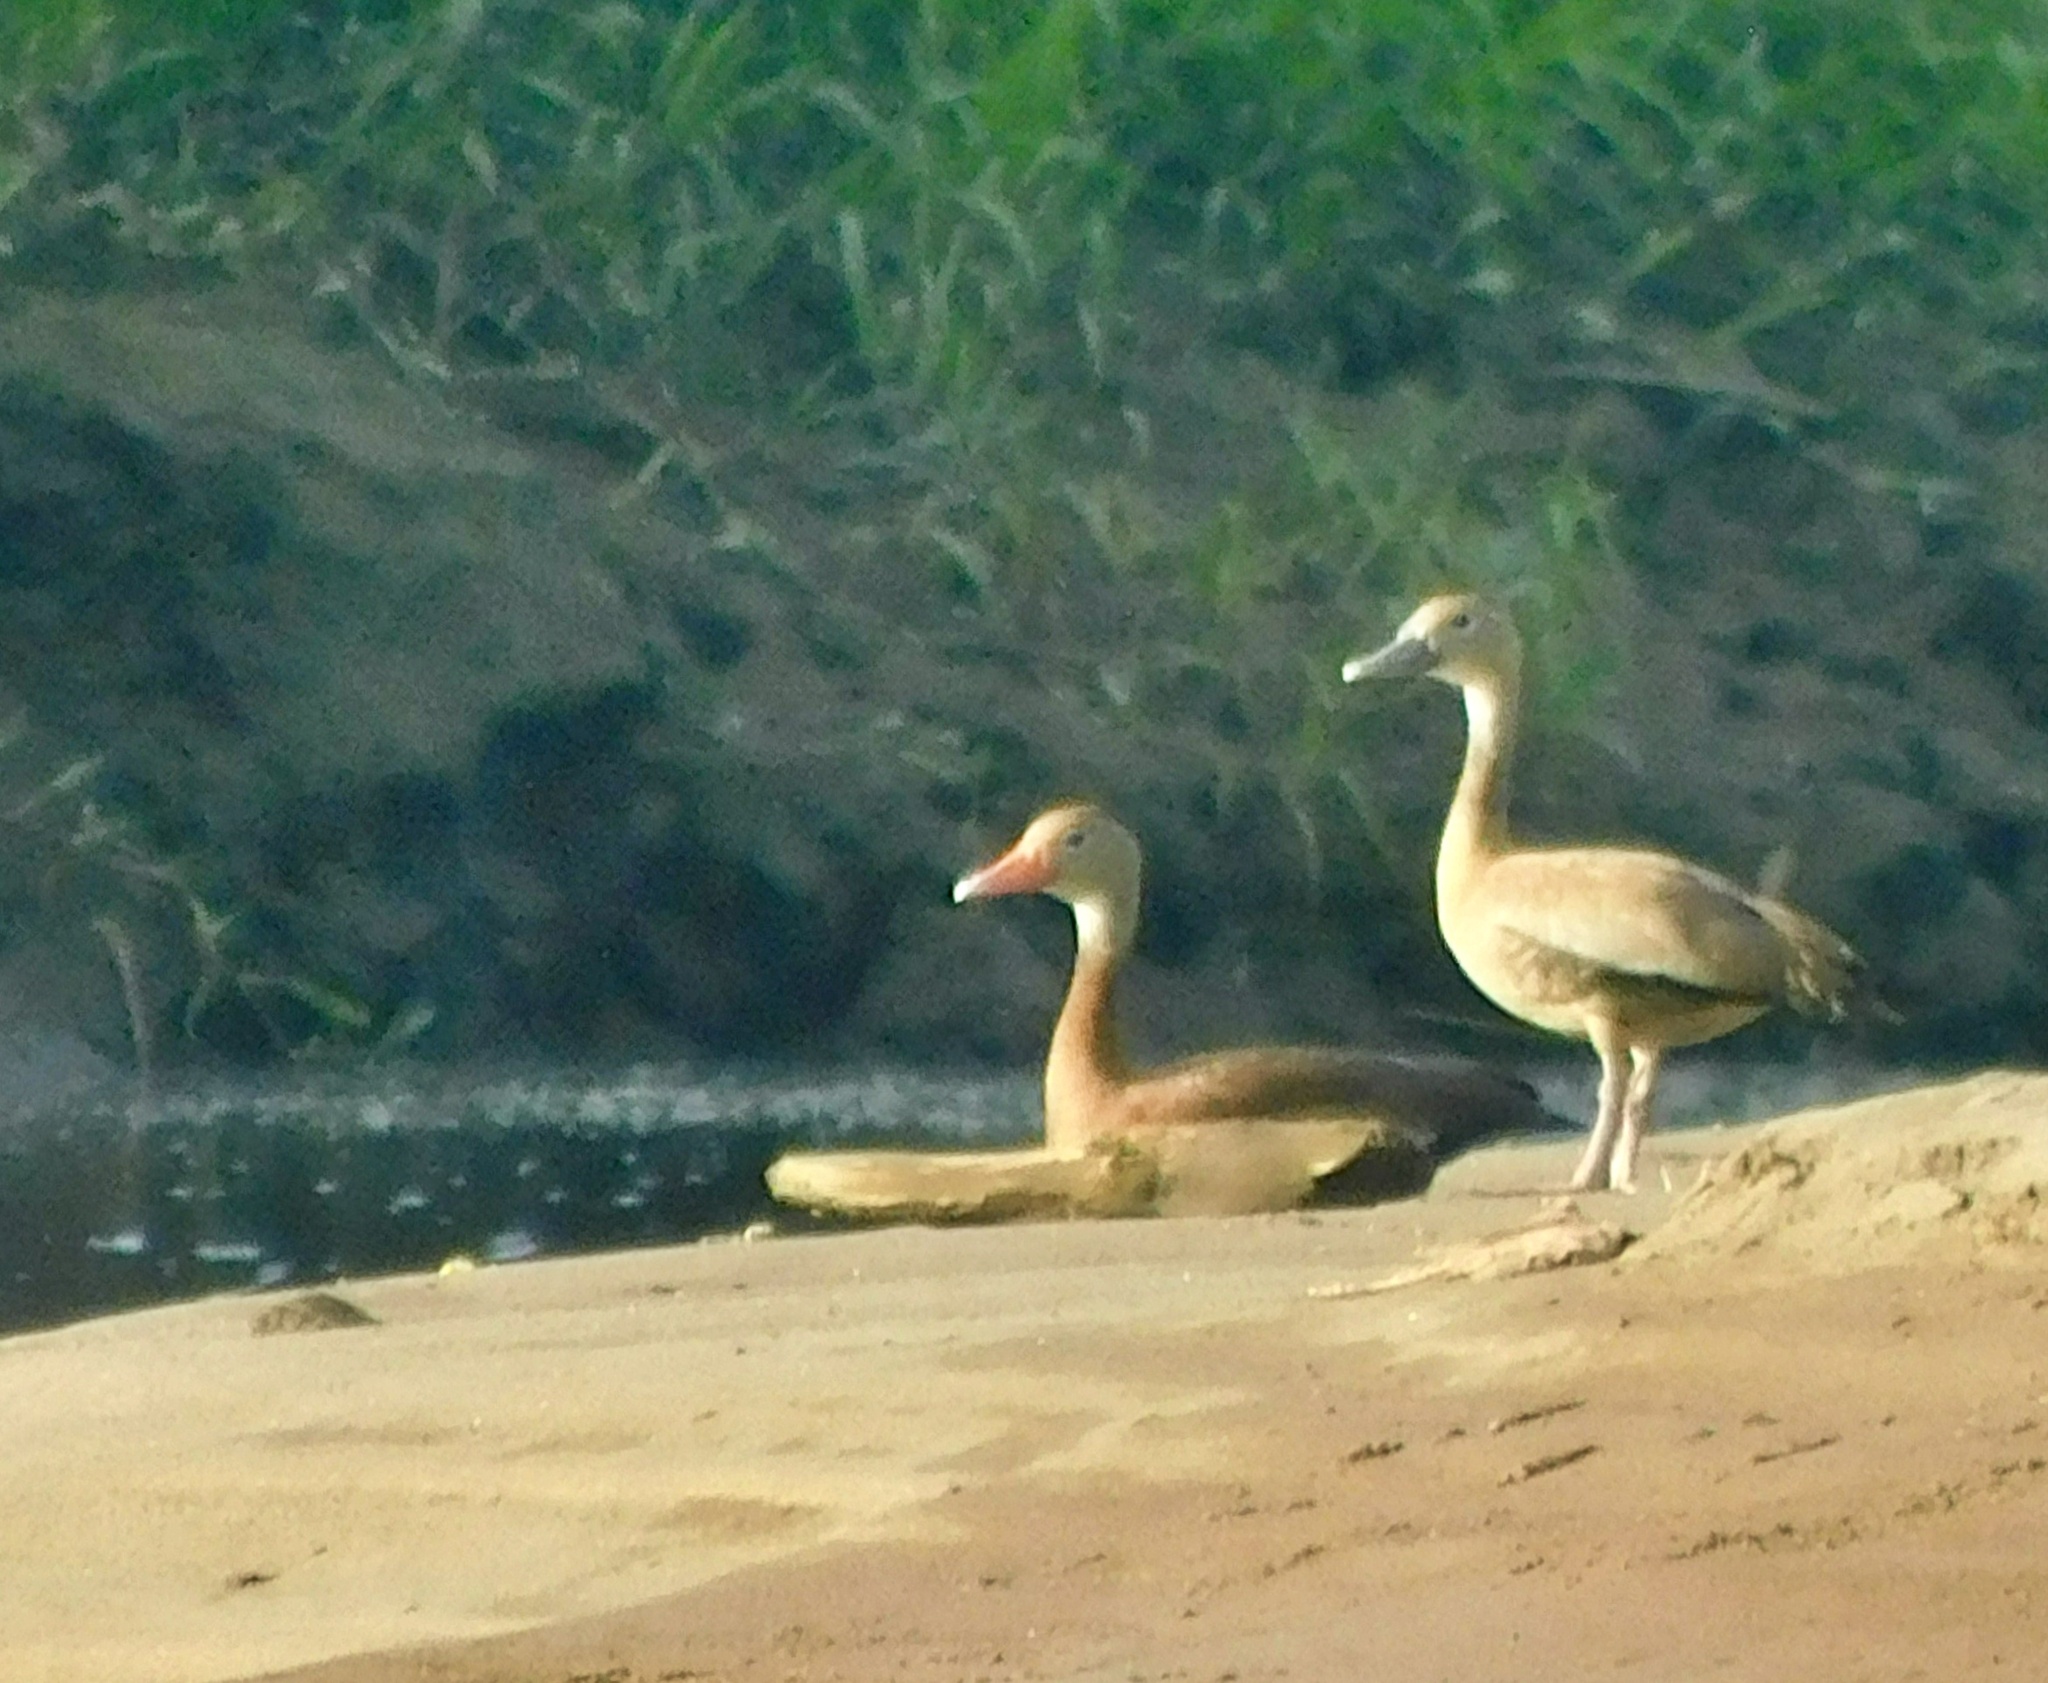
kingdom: Animalia
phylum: Chordata
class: Aves
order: Anseriformes
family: Anatidae
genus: Dendrocygna
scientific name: Dendrocygna autumnalis
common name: Black-bellied whistling duck
